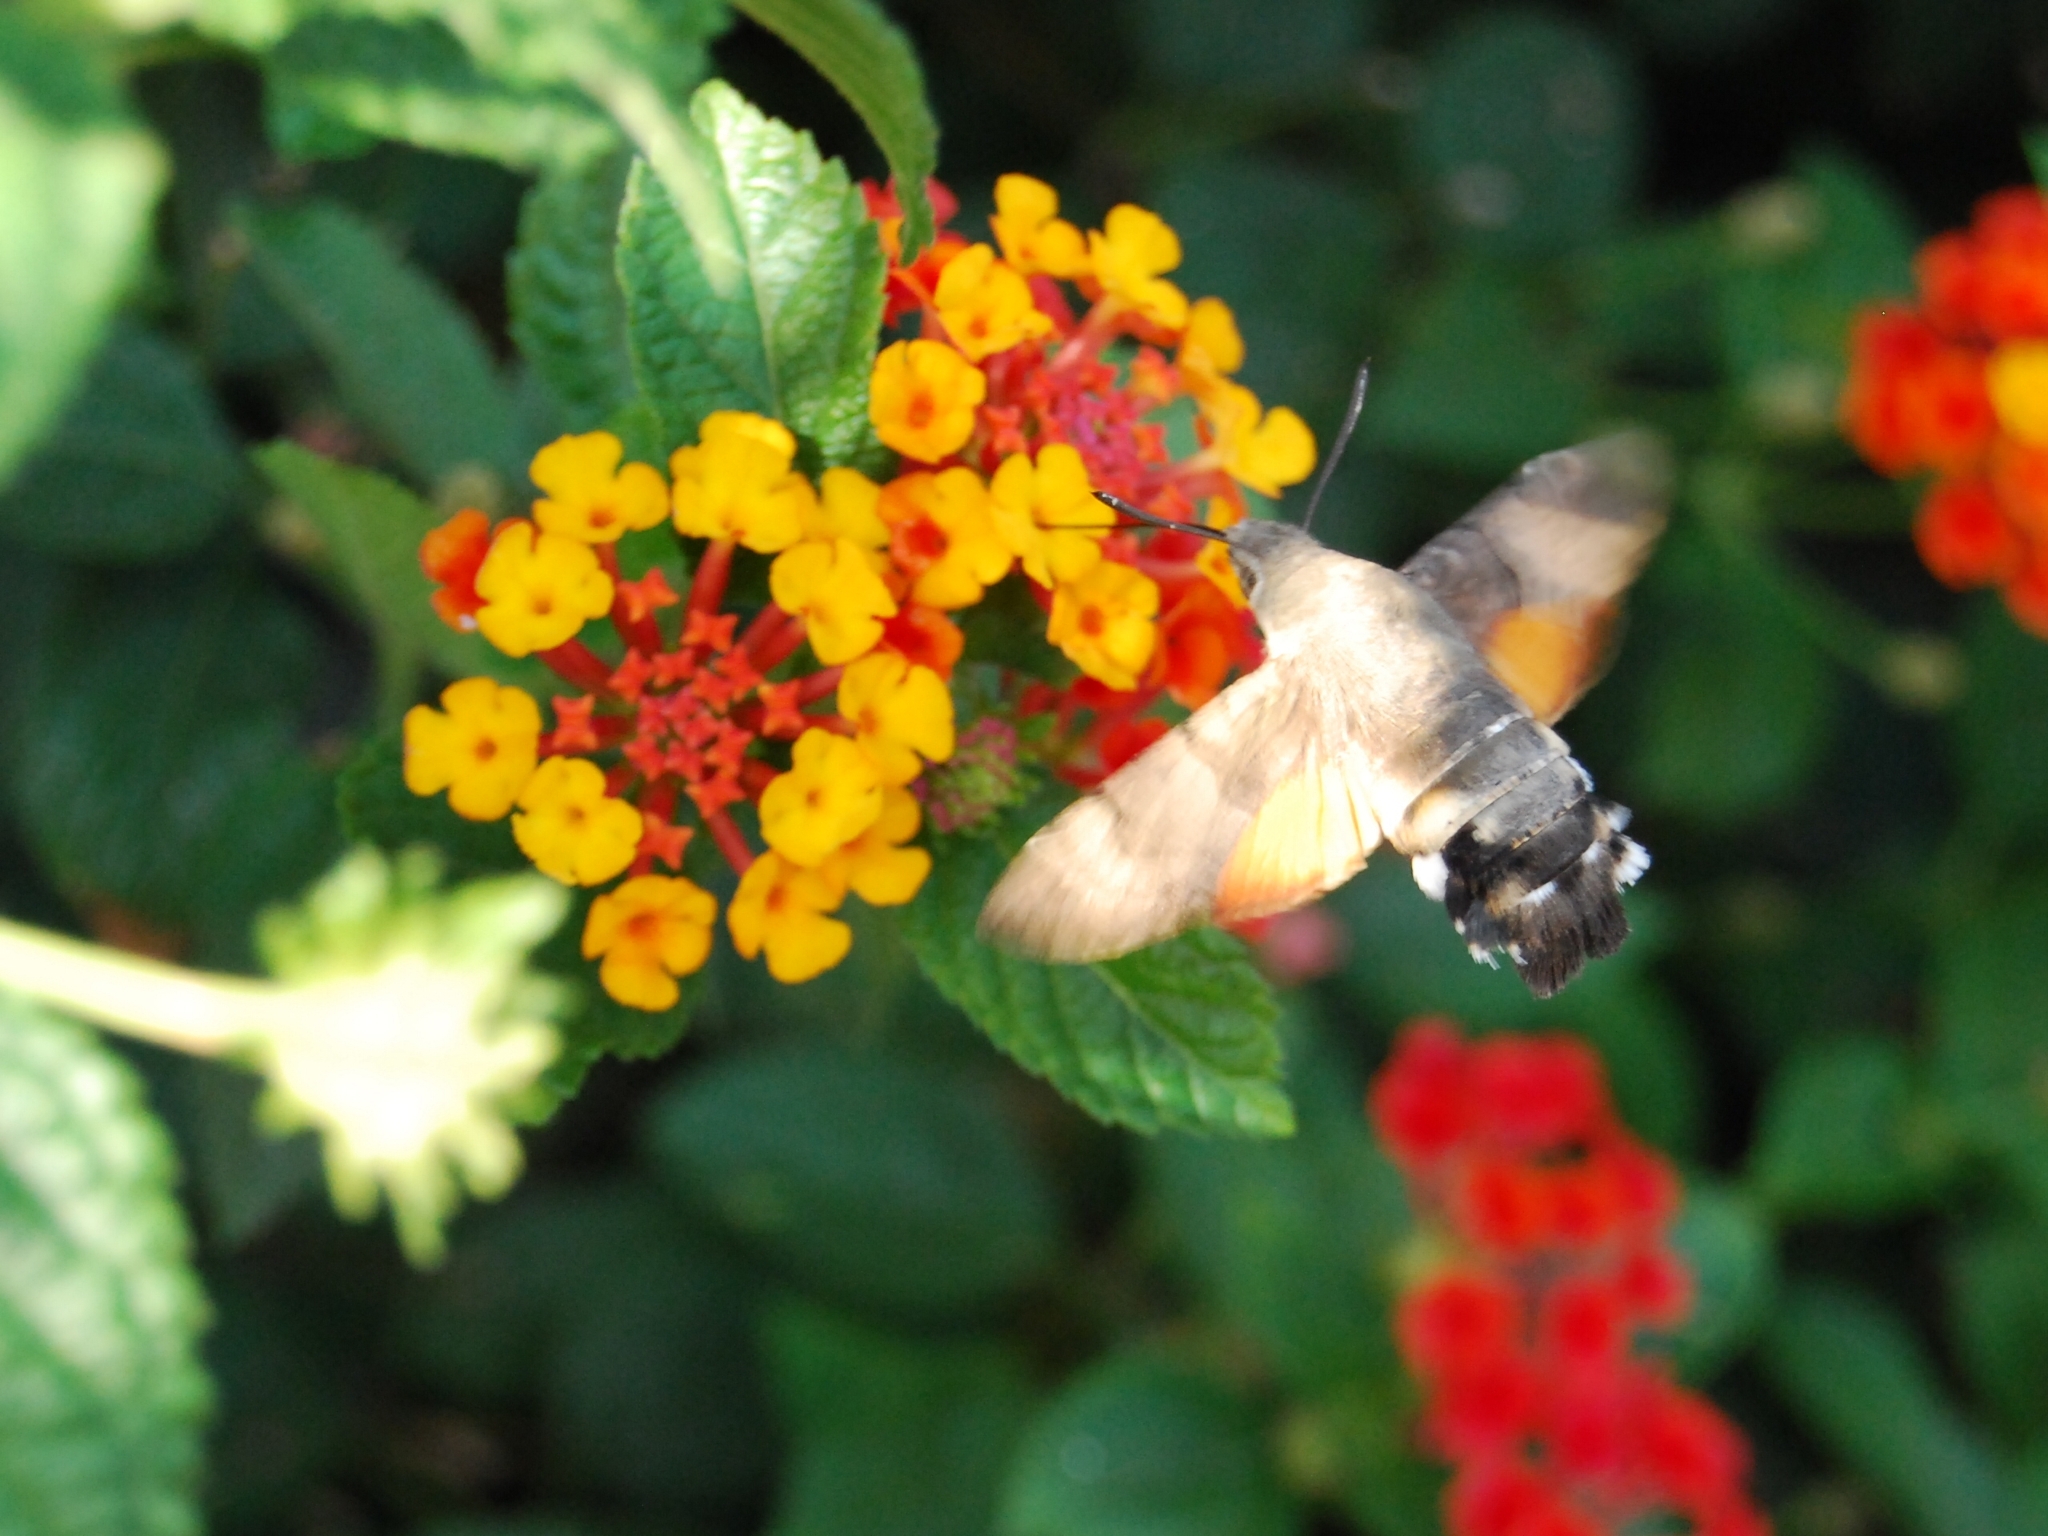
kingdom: Animalia
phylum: Arthropoda
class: Insecta
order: Lepidoptera
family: Sphingidae
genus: Macroglossum
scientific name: Macroglossum stellatarum
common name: Humming-bird hawk-moth
